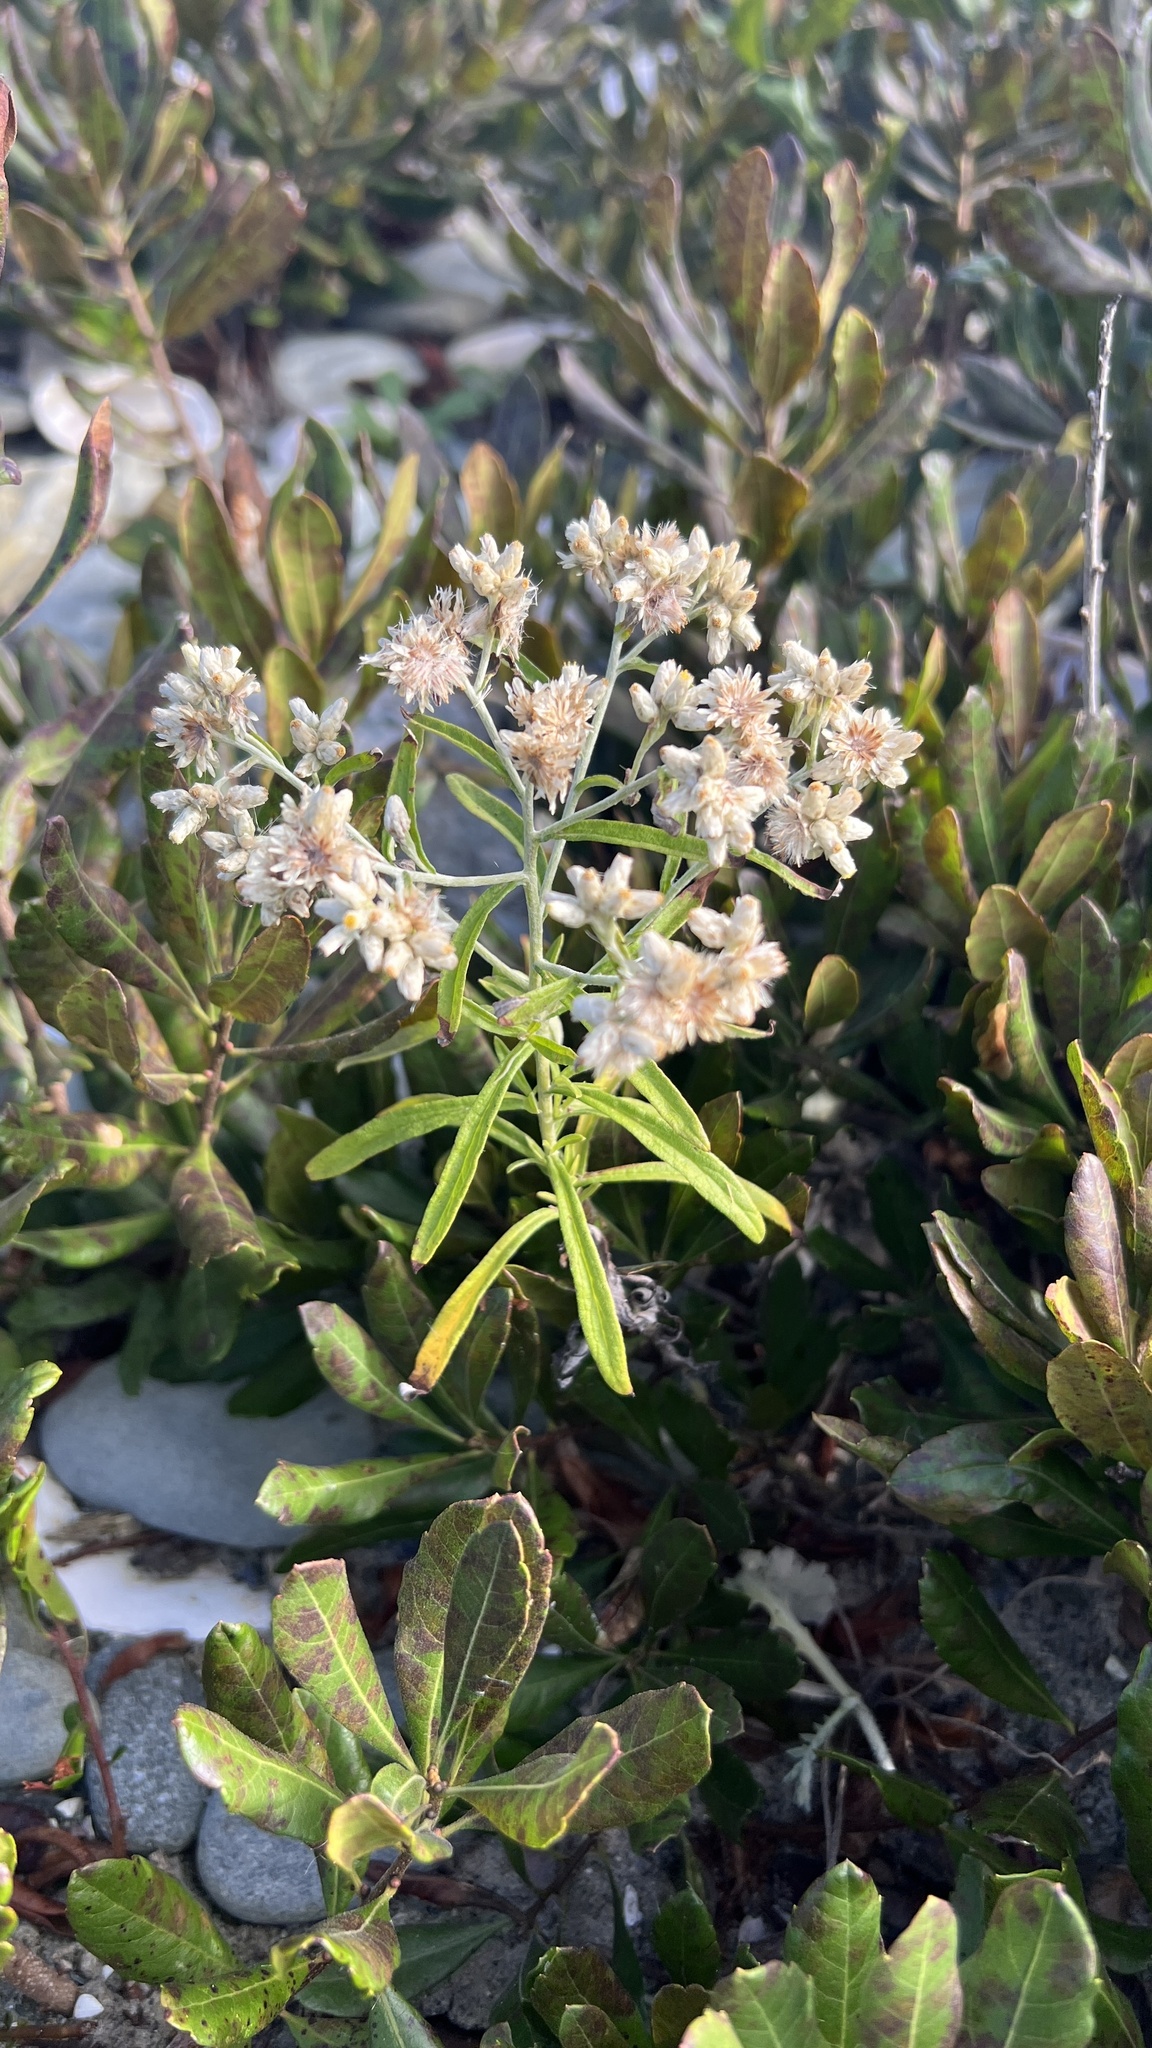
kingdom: Plantae
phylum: Tracheophyta
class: Magnoliopsida
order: Asterales
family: Asteraceae
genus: Pseudognaphalium
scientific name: Pseudognaphalium obtusifolium
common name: Eastern rabbit-tobacco
